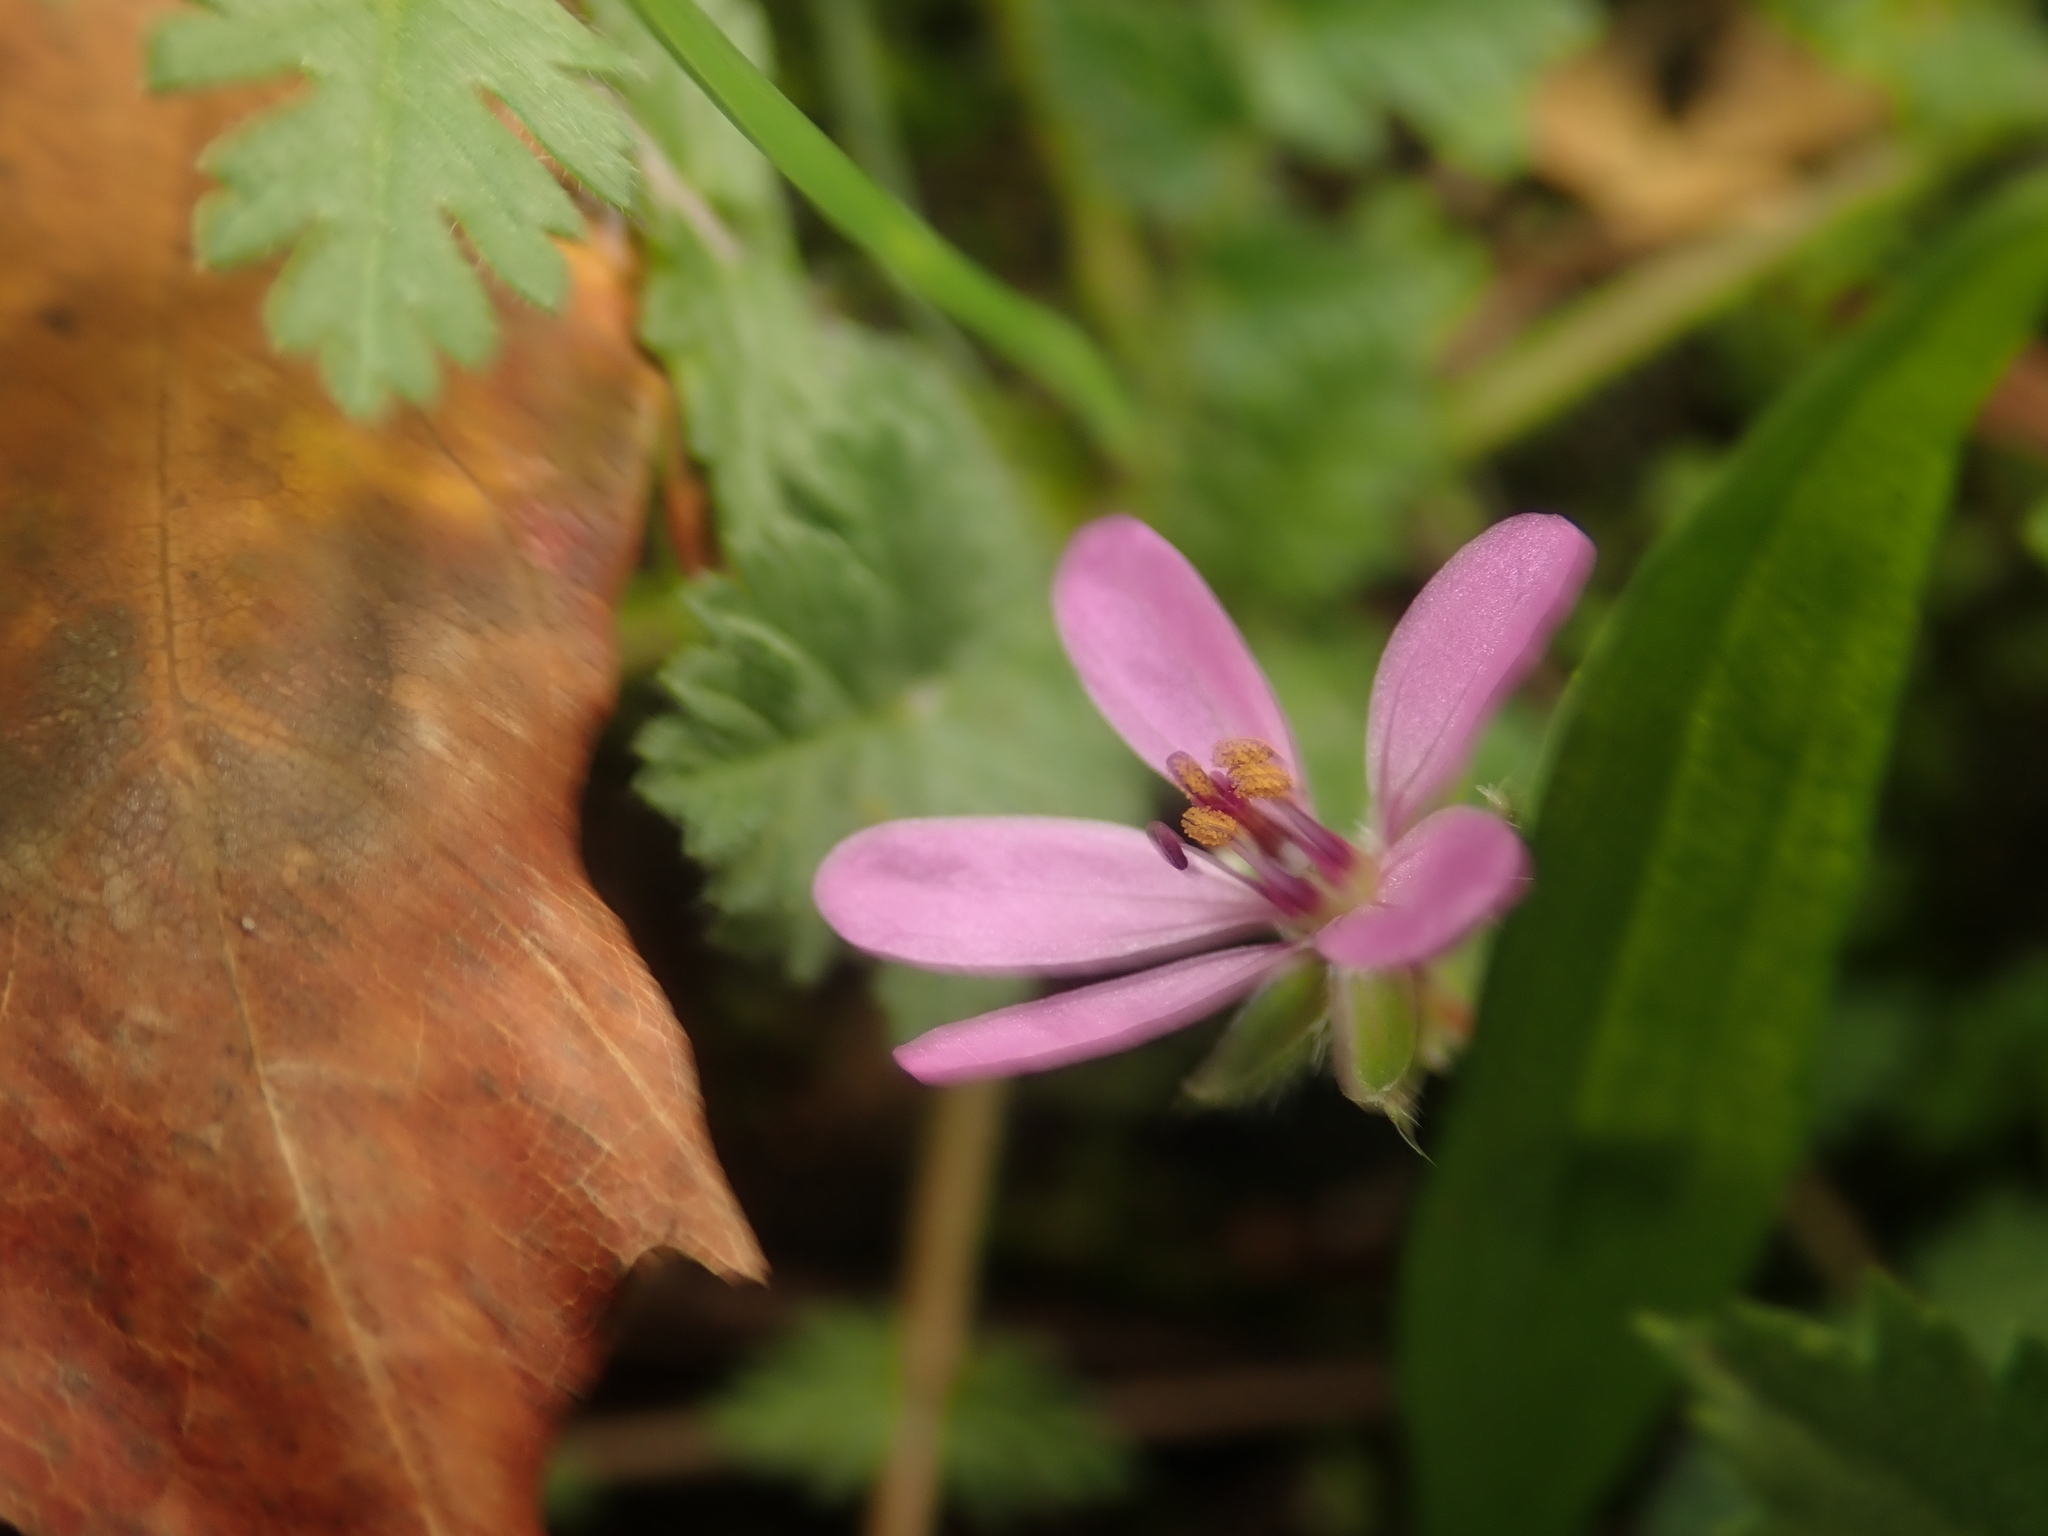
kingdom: Plantae
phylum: Tracheophyta
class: Magnoliopsida
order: Geraniales
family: Geraniaceae
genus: Erodium
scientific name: Erodium cicutarium
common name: Common stork's-bill
